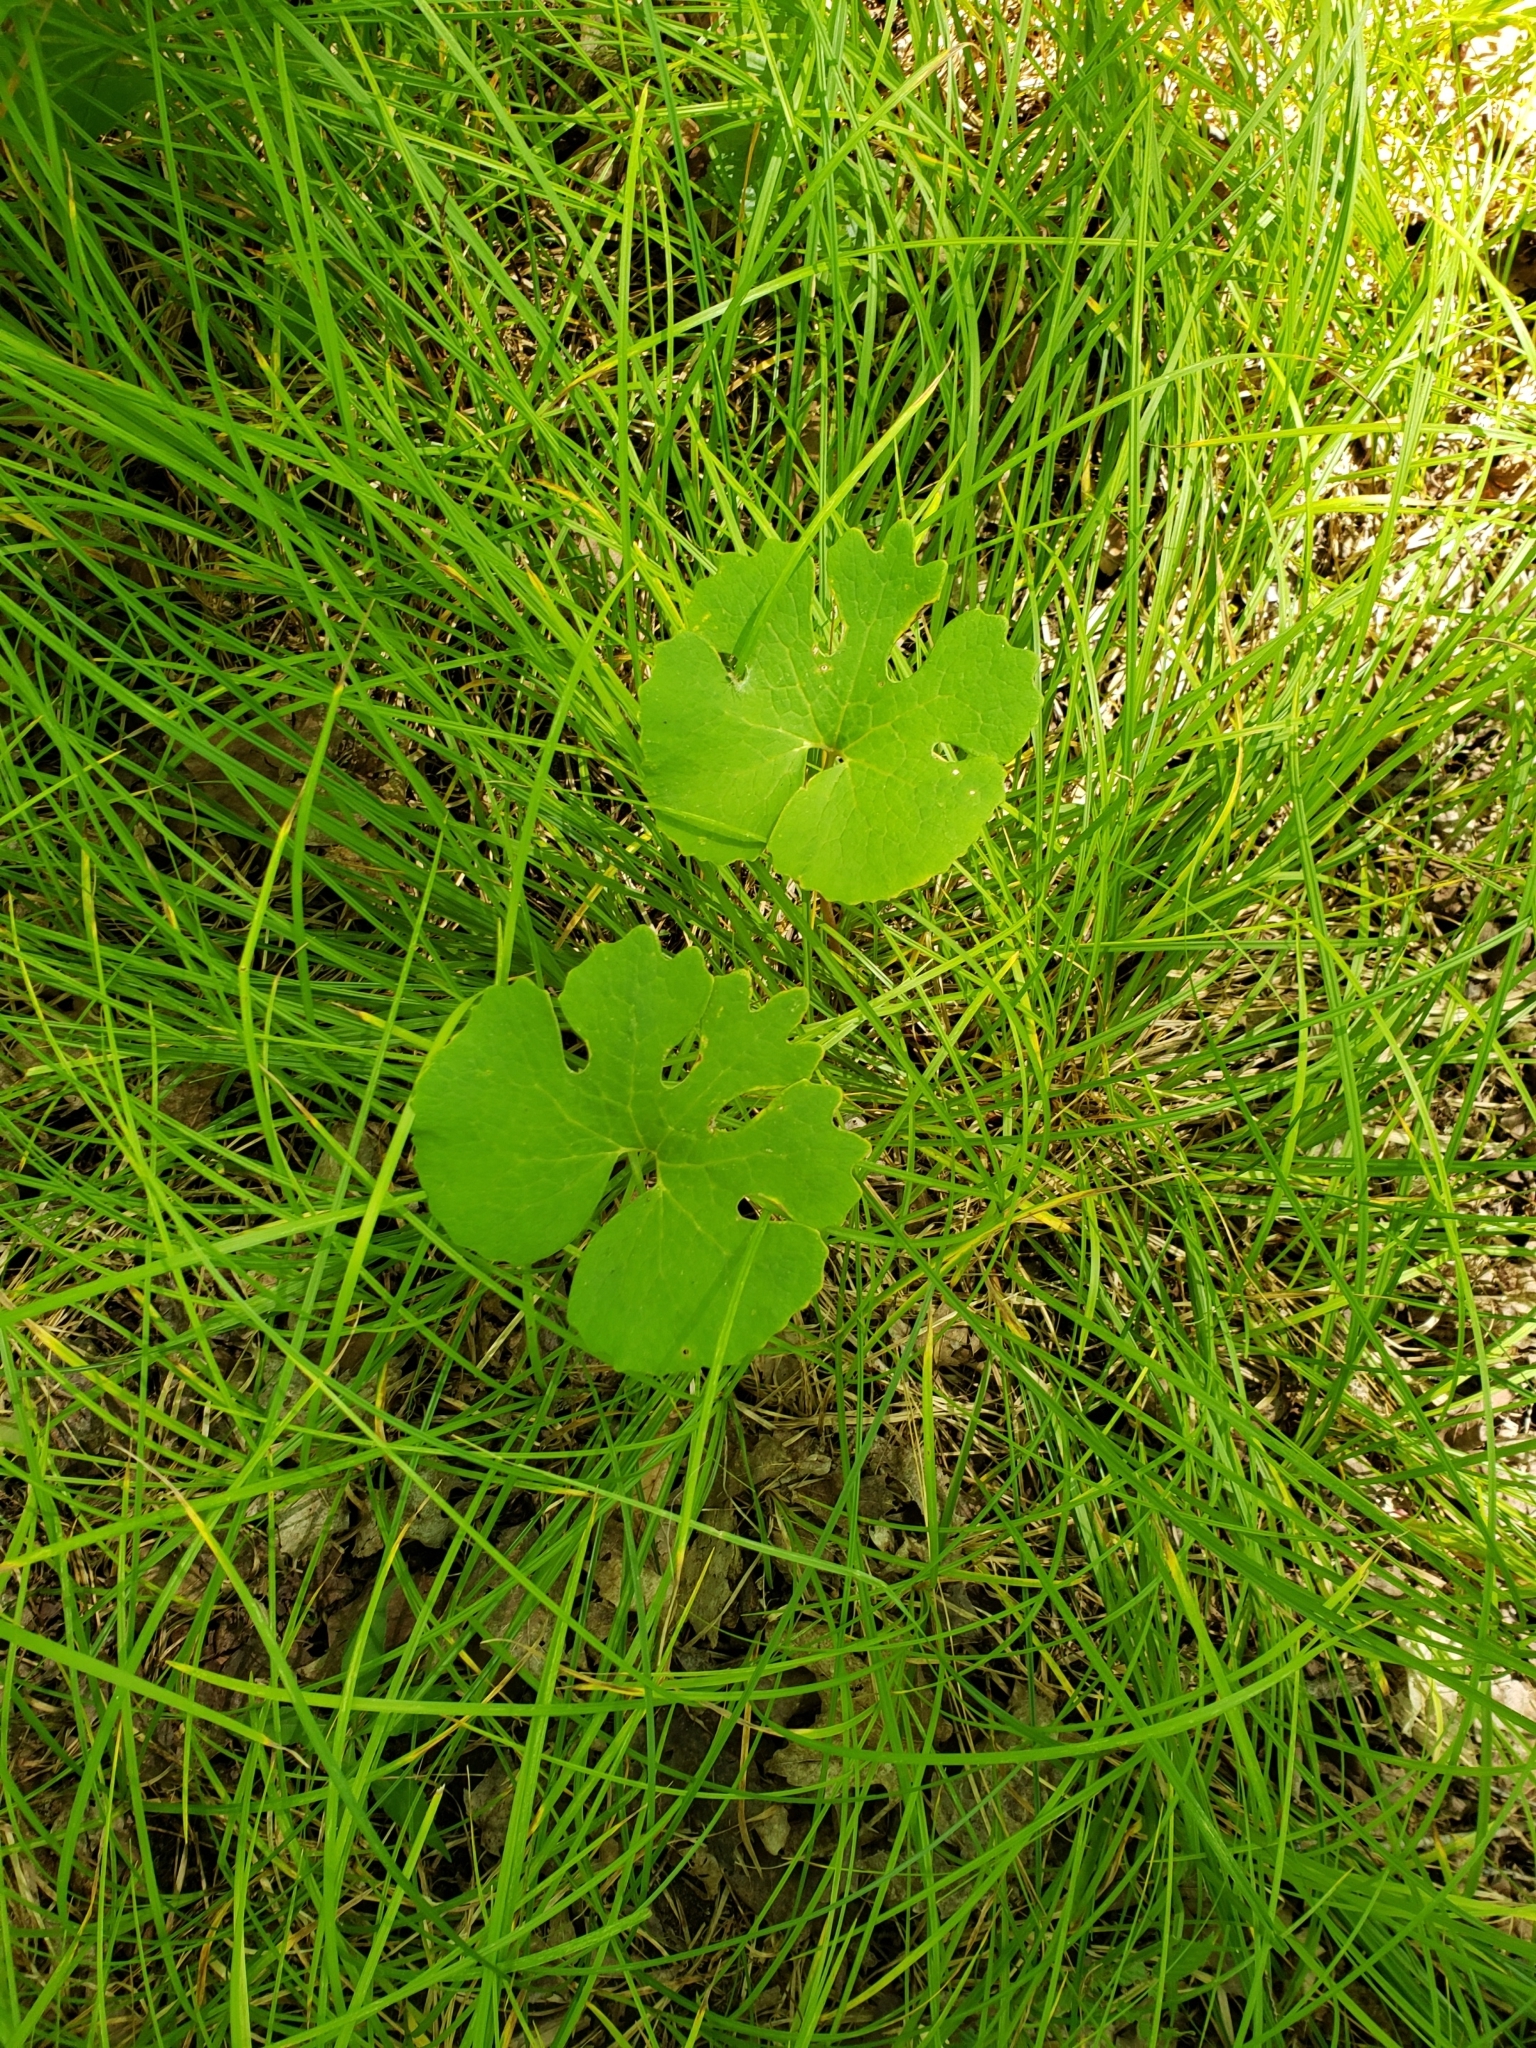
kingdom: Plantae
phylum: Tracheophyta
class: Magnoliopsida
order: Ranunculales
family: Papaveraceae
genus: Sanguinaria
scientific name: Sanguinaria canadensis
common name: Bloodroot
